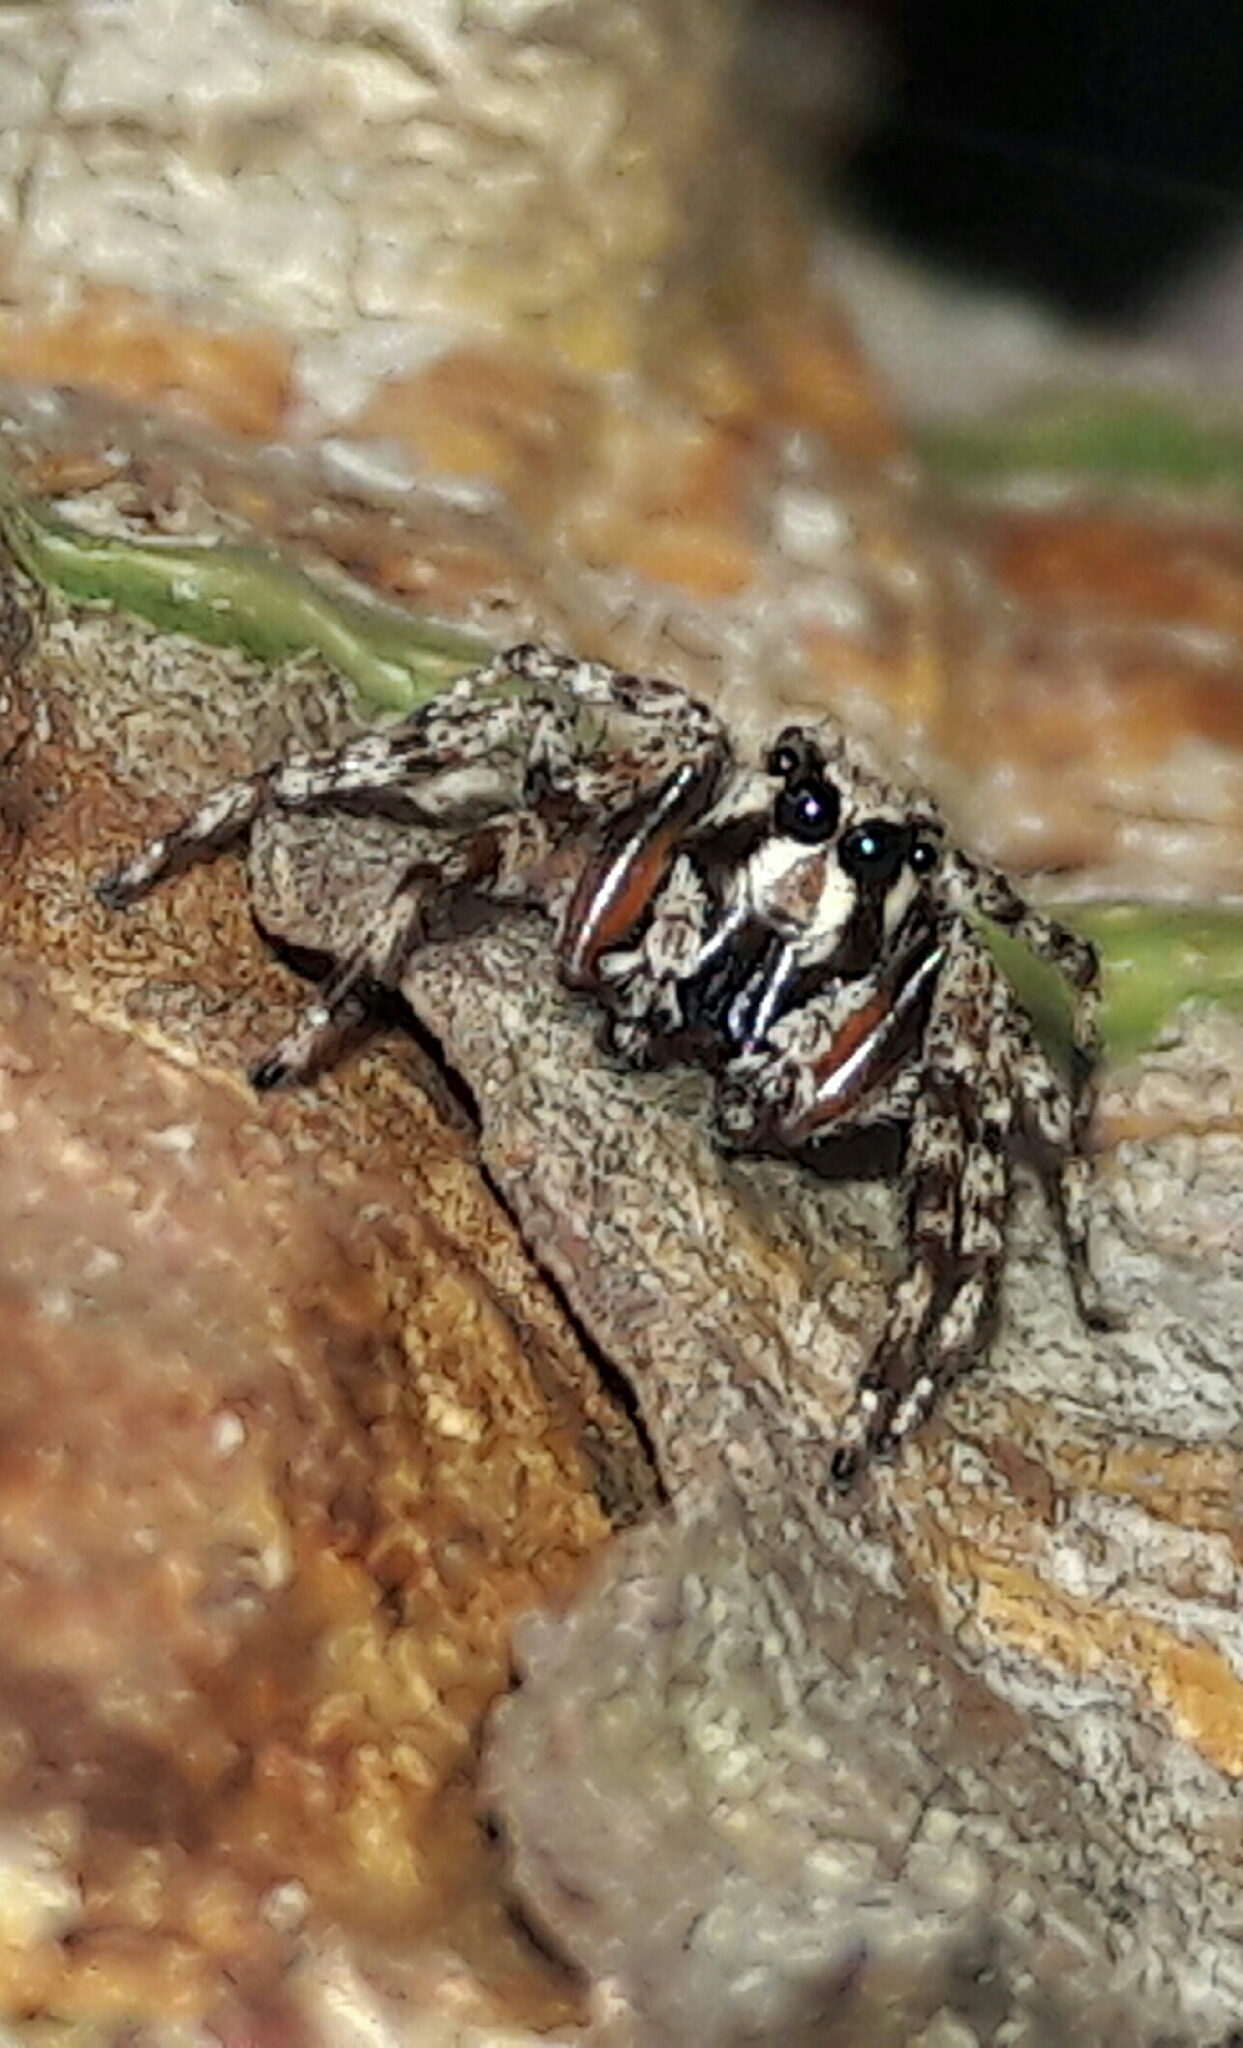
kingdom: Animalia
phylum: Arthropoda
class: Arachnida
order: Araneae
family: Salticidae
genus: Titanattus
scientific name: Titanattus notabilis
